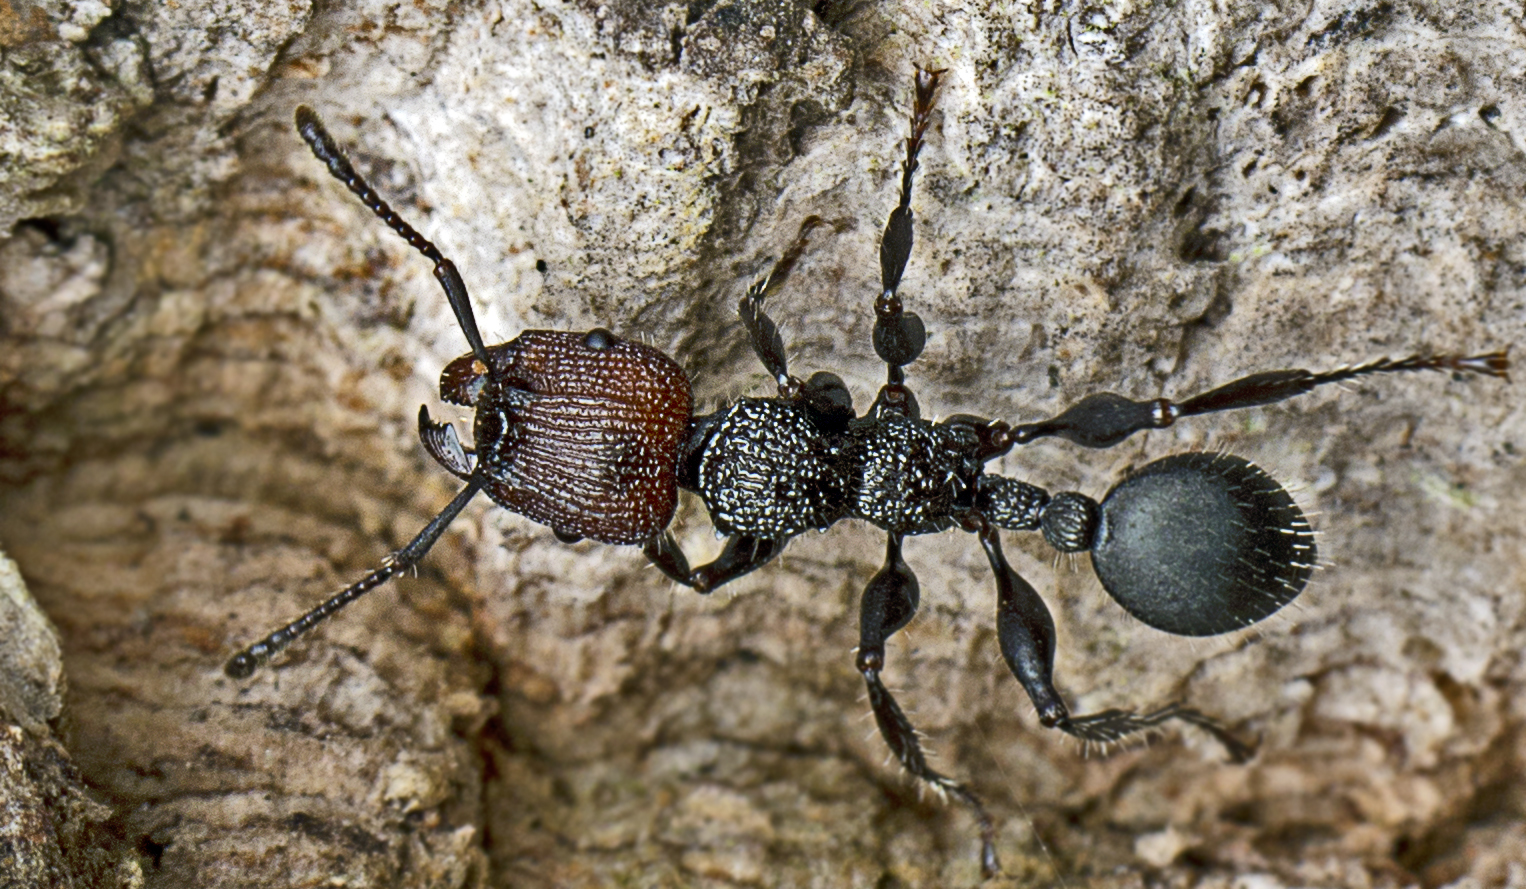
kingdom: Animalia
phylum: Arthropoda
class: Insecta
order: Hymenoptera
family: Formicidae
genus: Podomyrma
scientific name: Podomyrma micans
